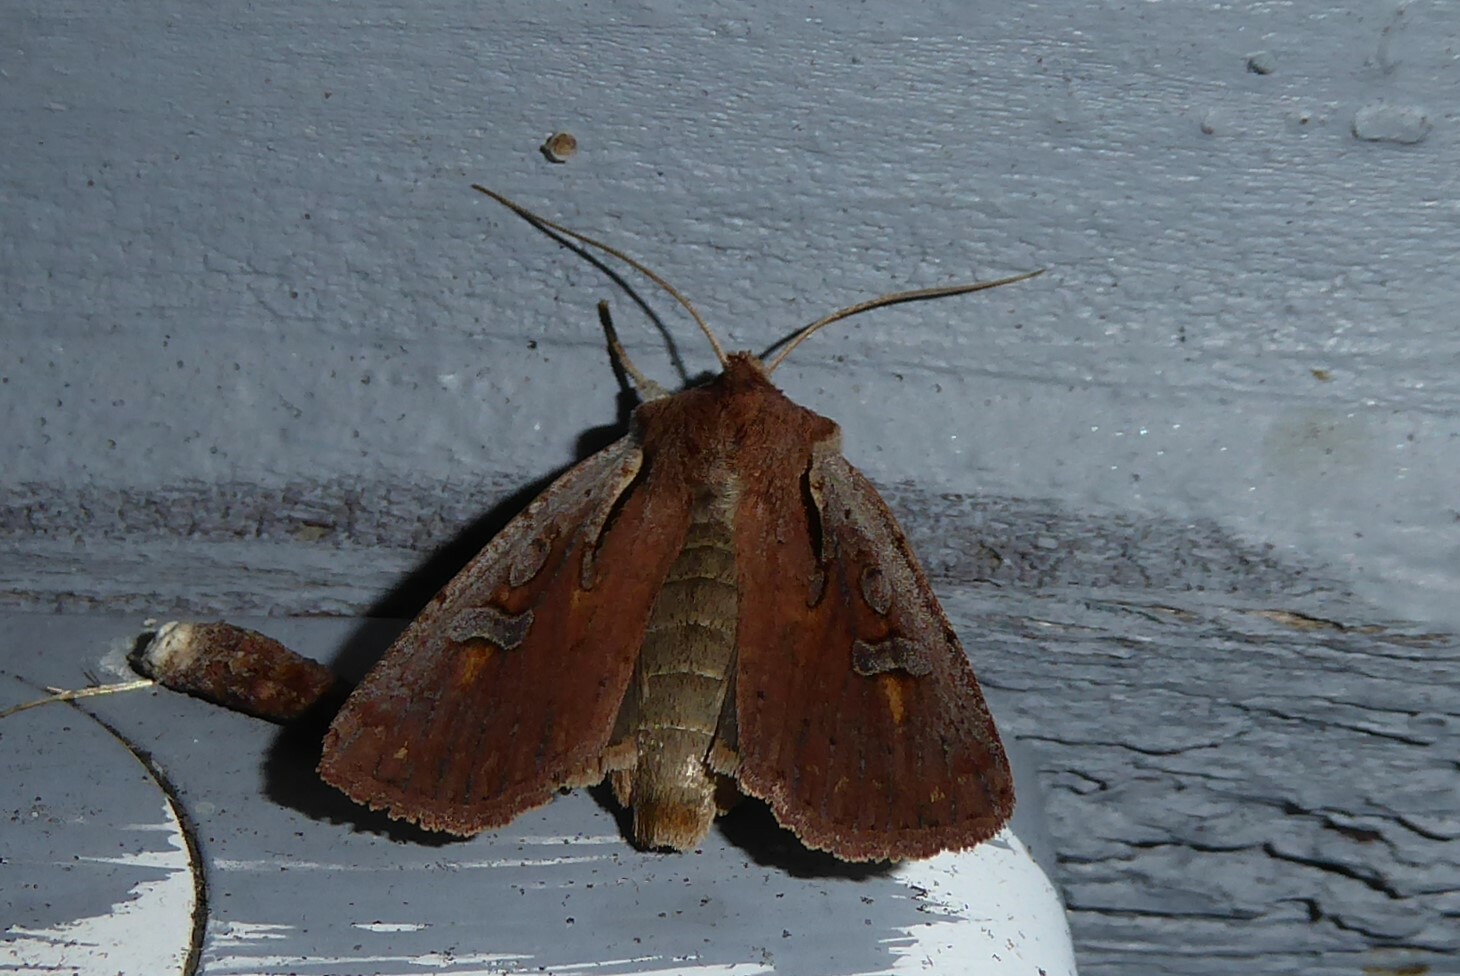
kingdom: Animalia
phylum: Arthropoda
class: Insecta
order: Lepidoptera
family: Noctuidae
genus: Ichneutica
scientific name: Ichneutica atristriga
